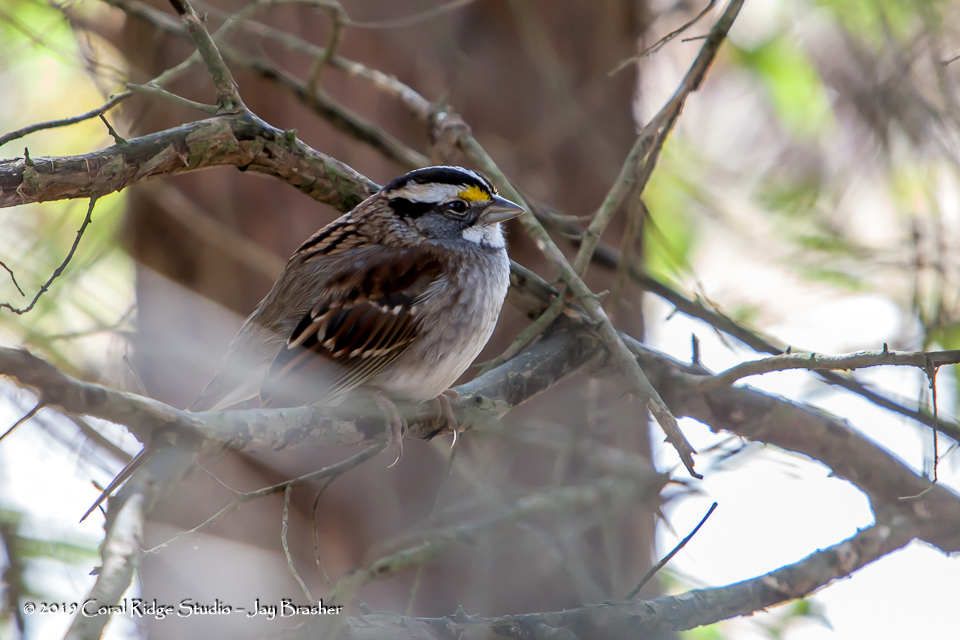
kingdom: Animalia
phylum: Chordata
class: Aves
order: Passeriformes
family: Passerellidae
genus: Zonotrichia
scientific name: Zonotrichia albicollis
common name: White-throated sparrow
